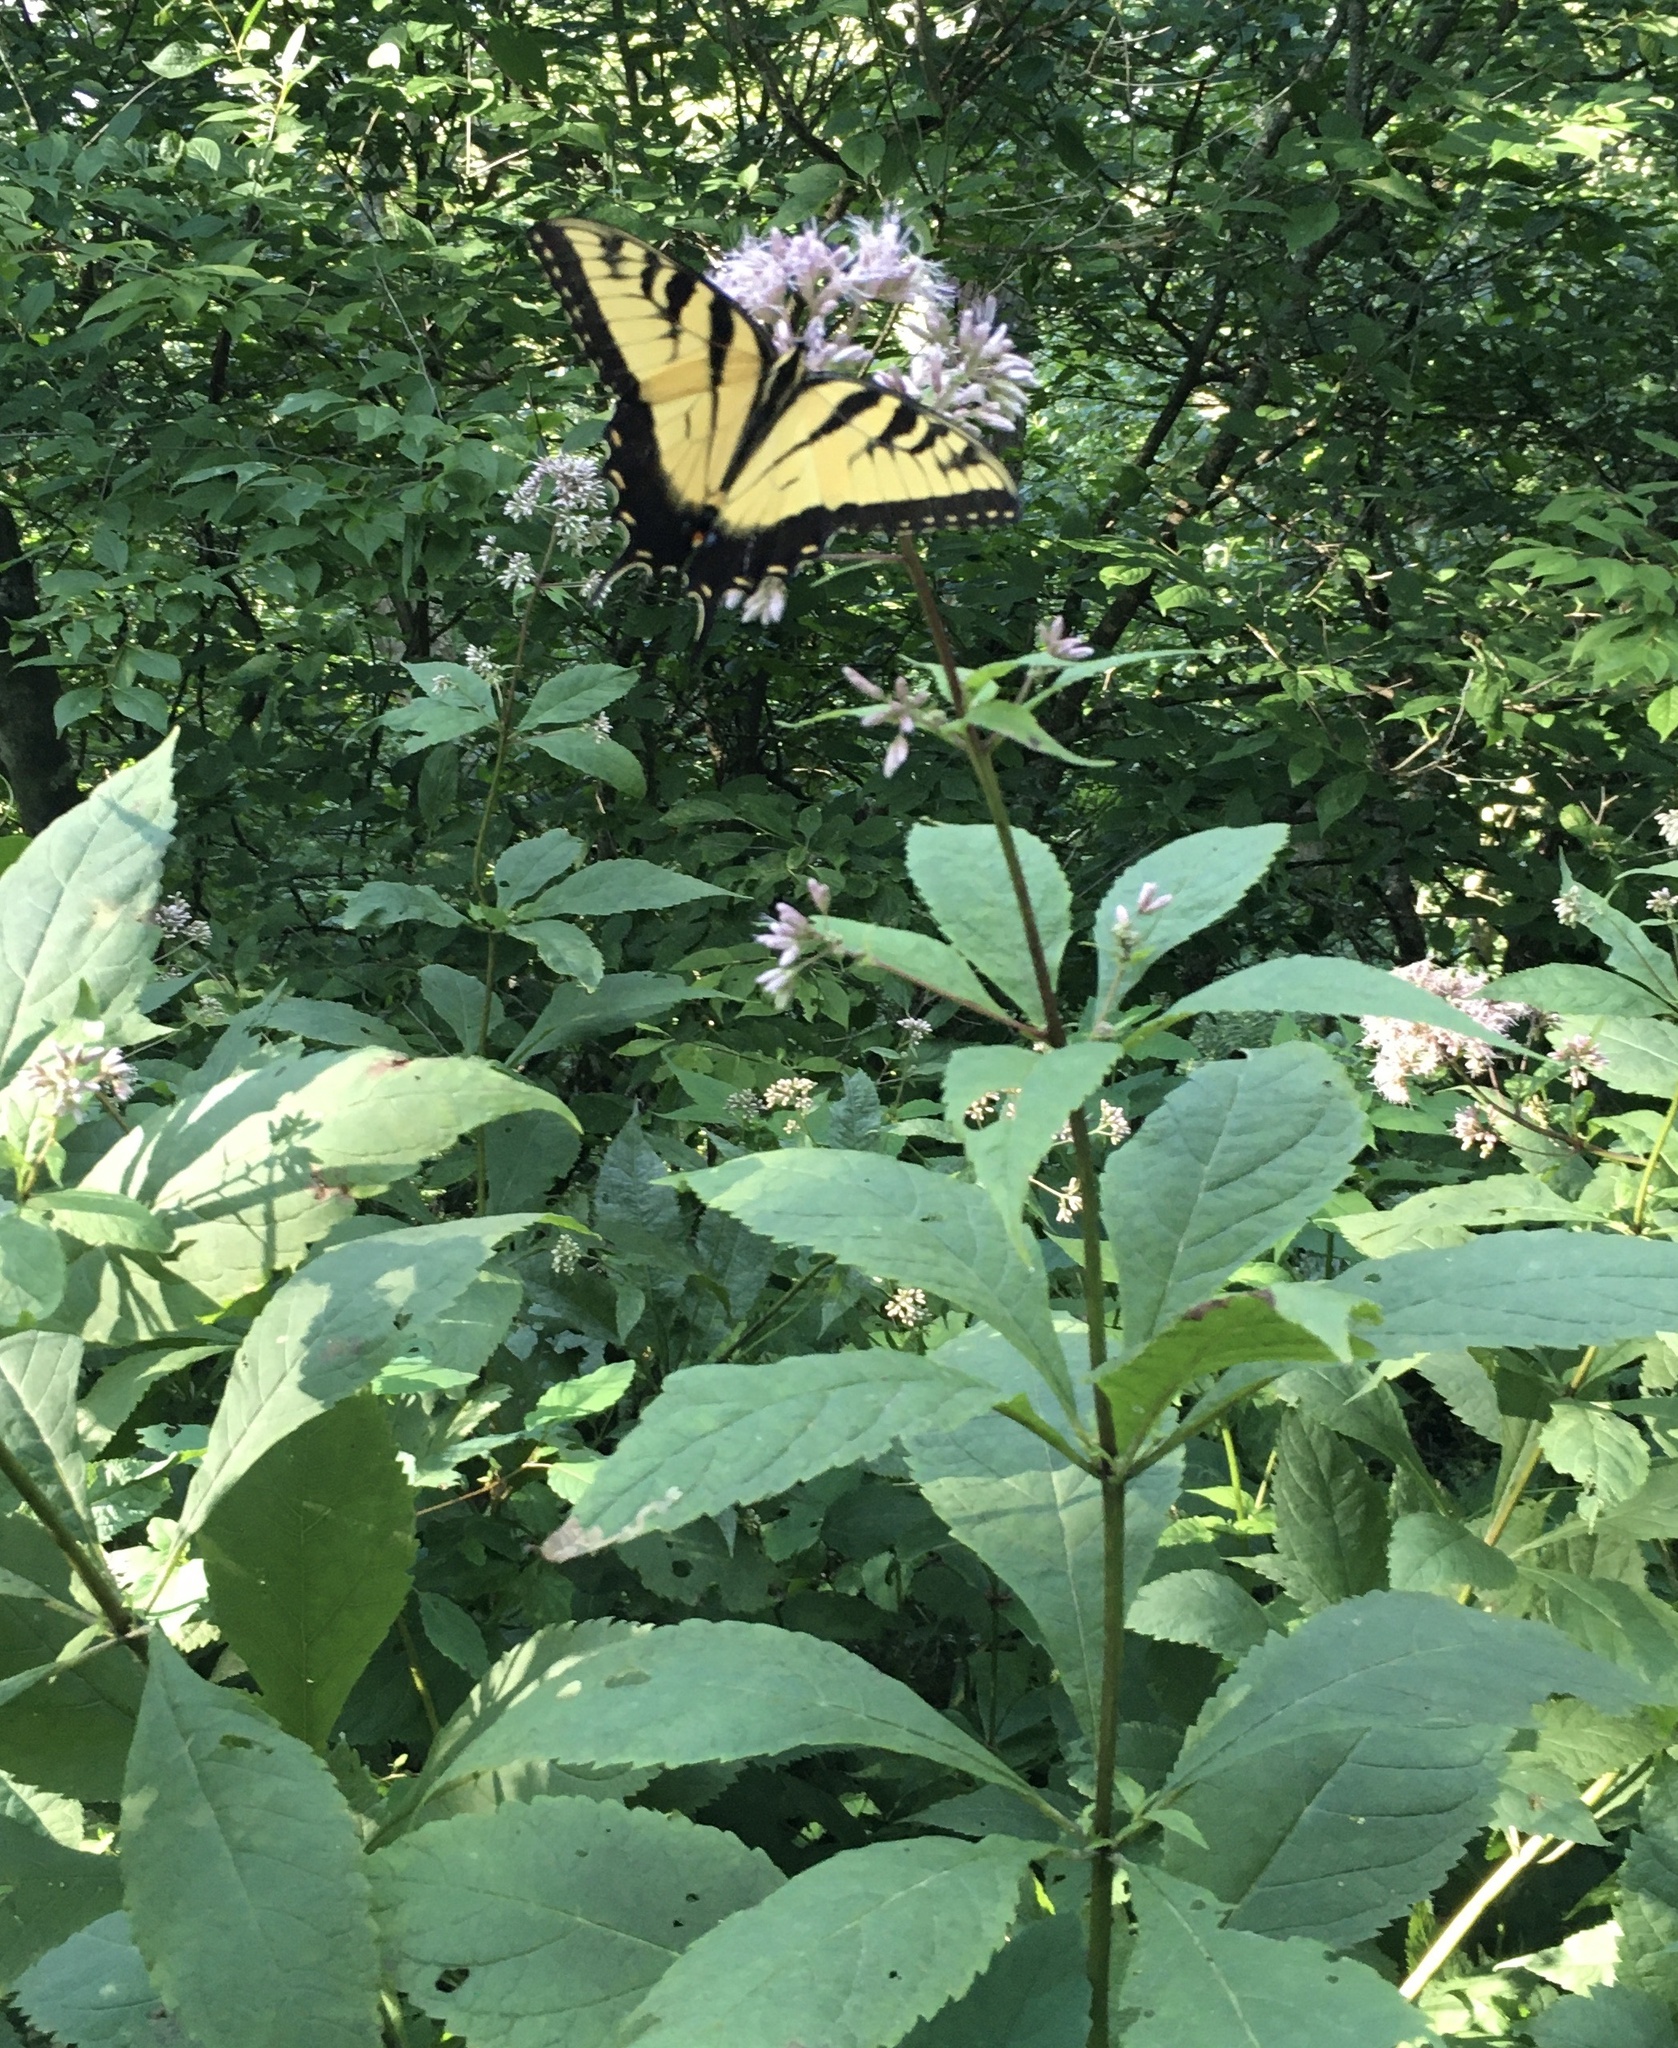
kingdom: Animalia
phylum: Arthropoda
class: Insecta
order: Lepidoptera
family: Papilionidae
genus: Papilio
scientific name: Papilio glaucus
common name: Tiger swallowtail
